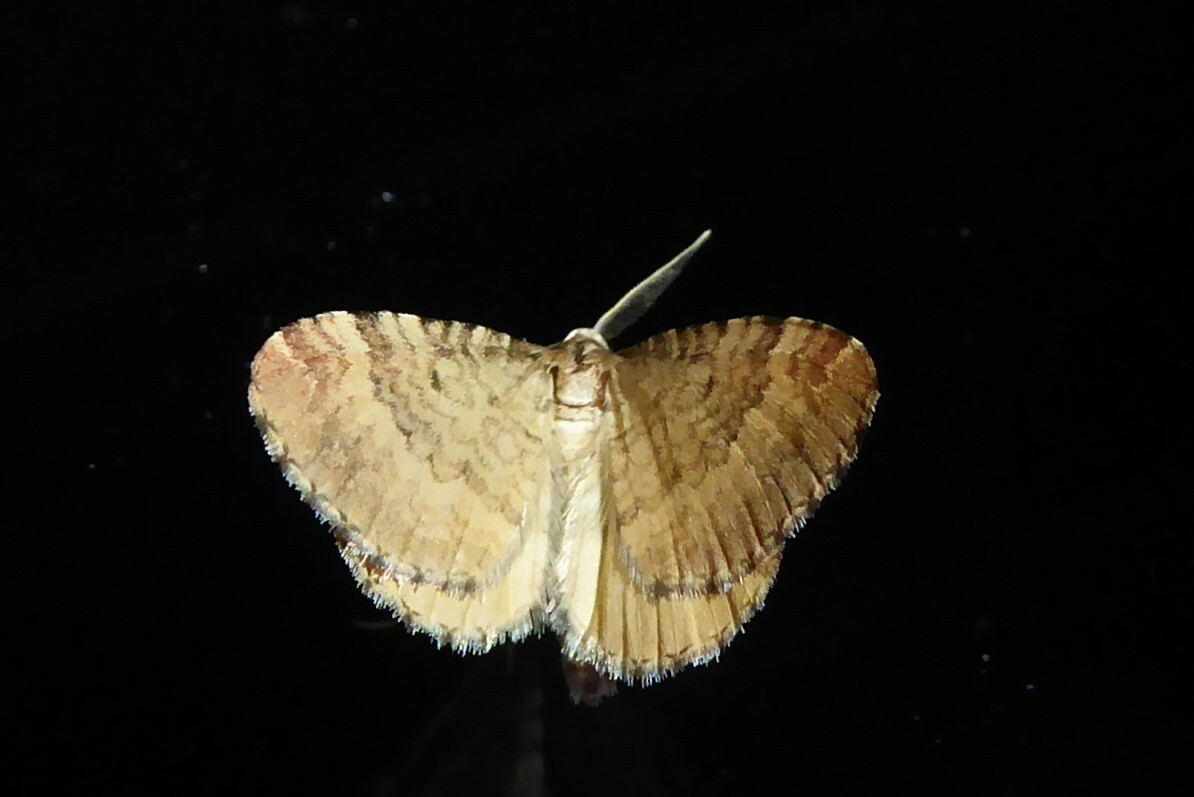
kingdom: Animalia
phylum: Arthropoda
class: Insecta
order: Lepidoptera
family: Geometridae
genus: Asaphodes
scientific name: Asaphodes aegrota
